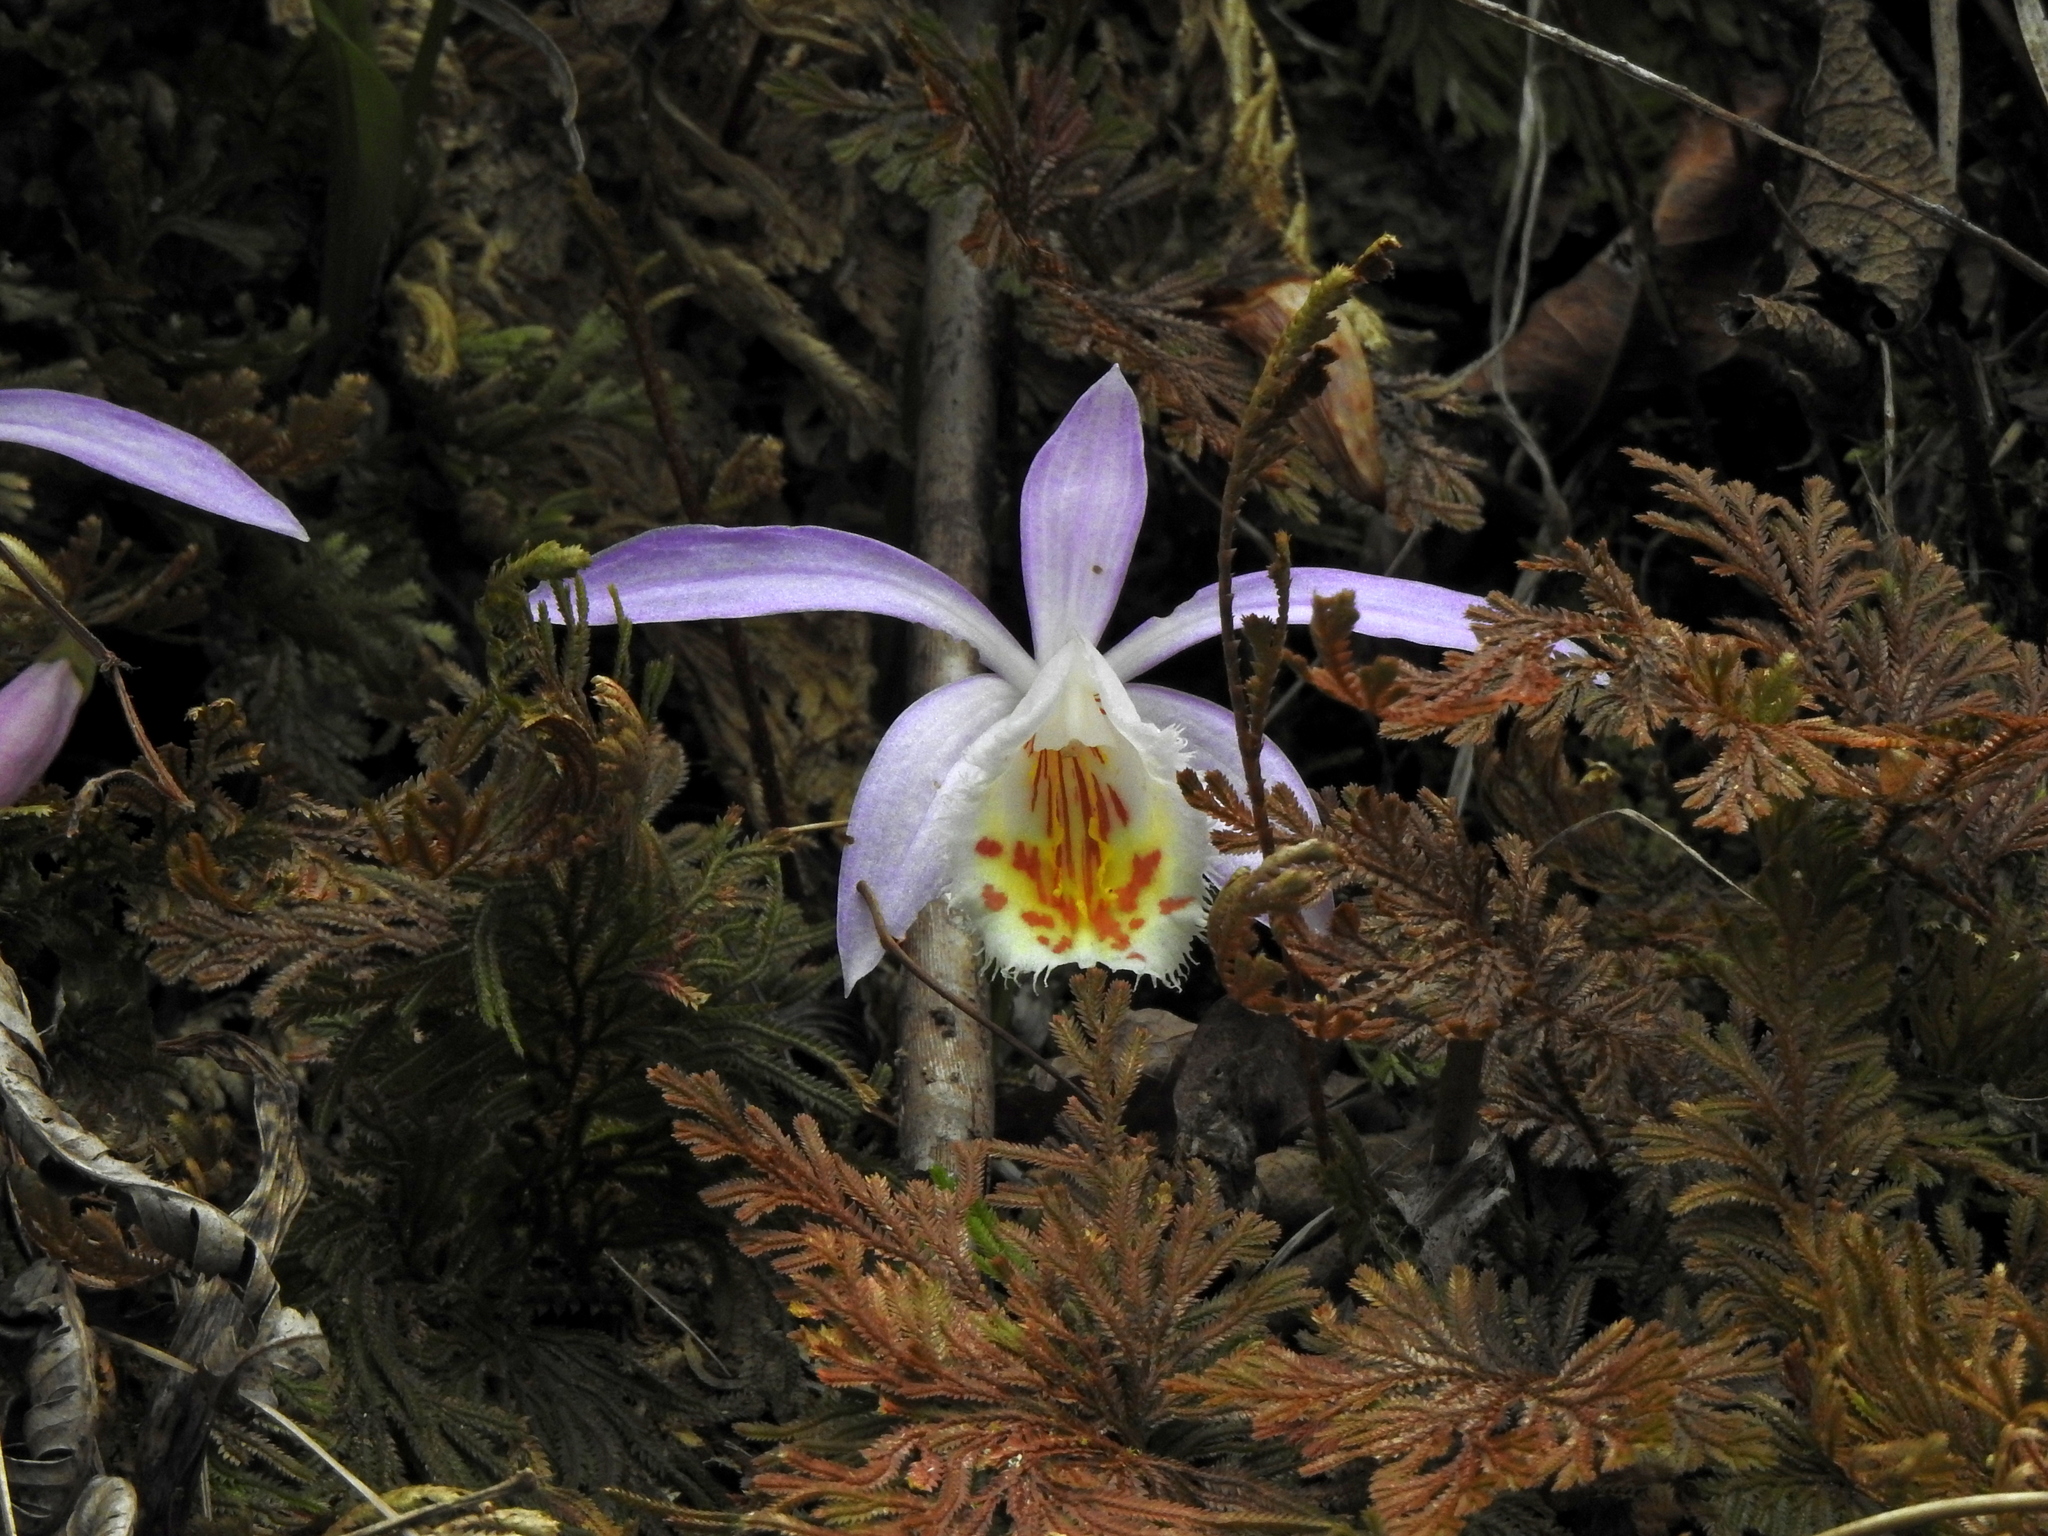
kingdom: Plantae
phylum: Tracheophyta
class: Liliopsida
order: Asparagales
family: Orchidaceae
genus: Pleione
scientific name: Pleione formosana
